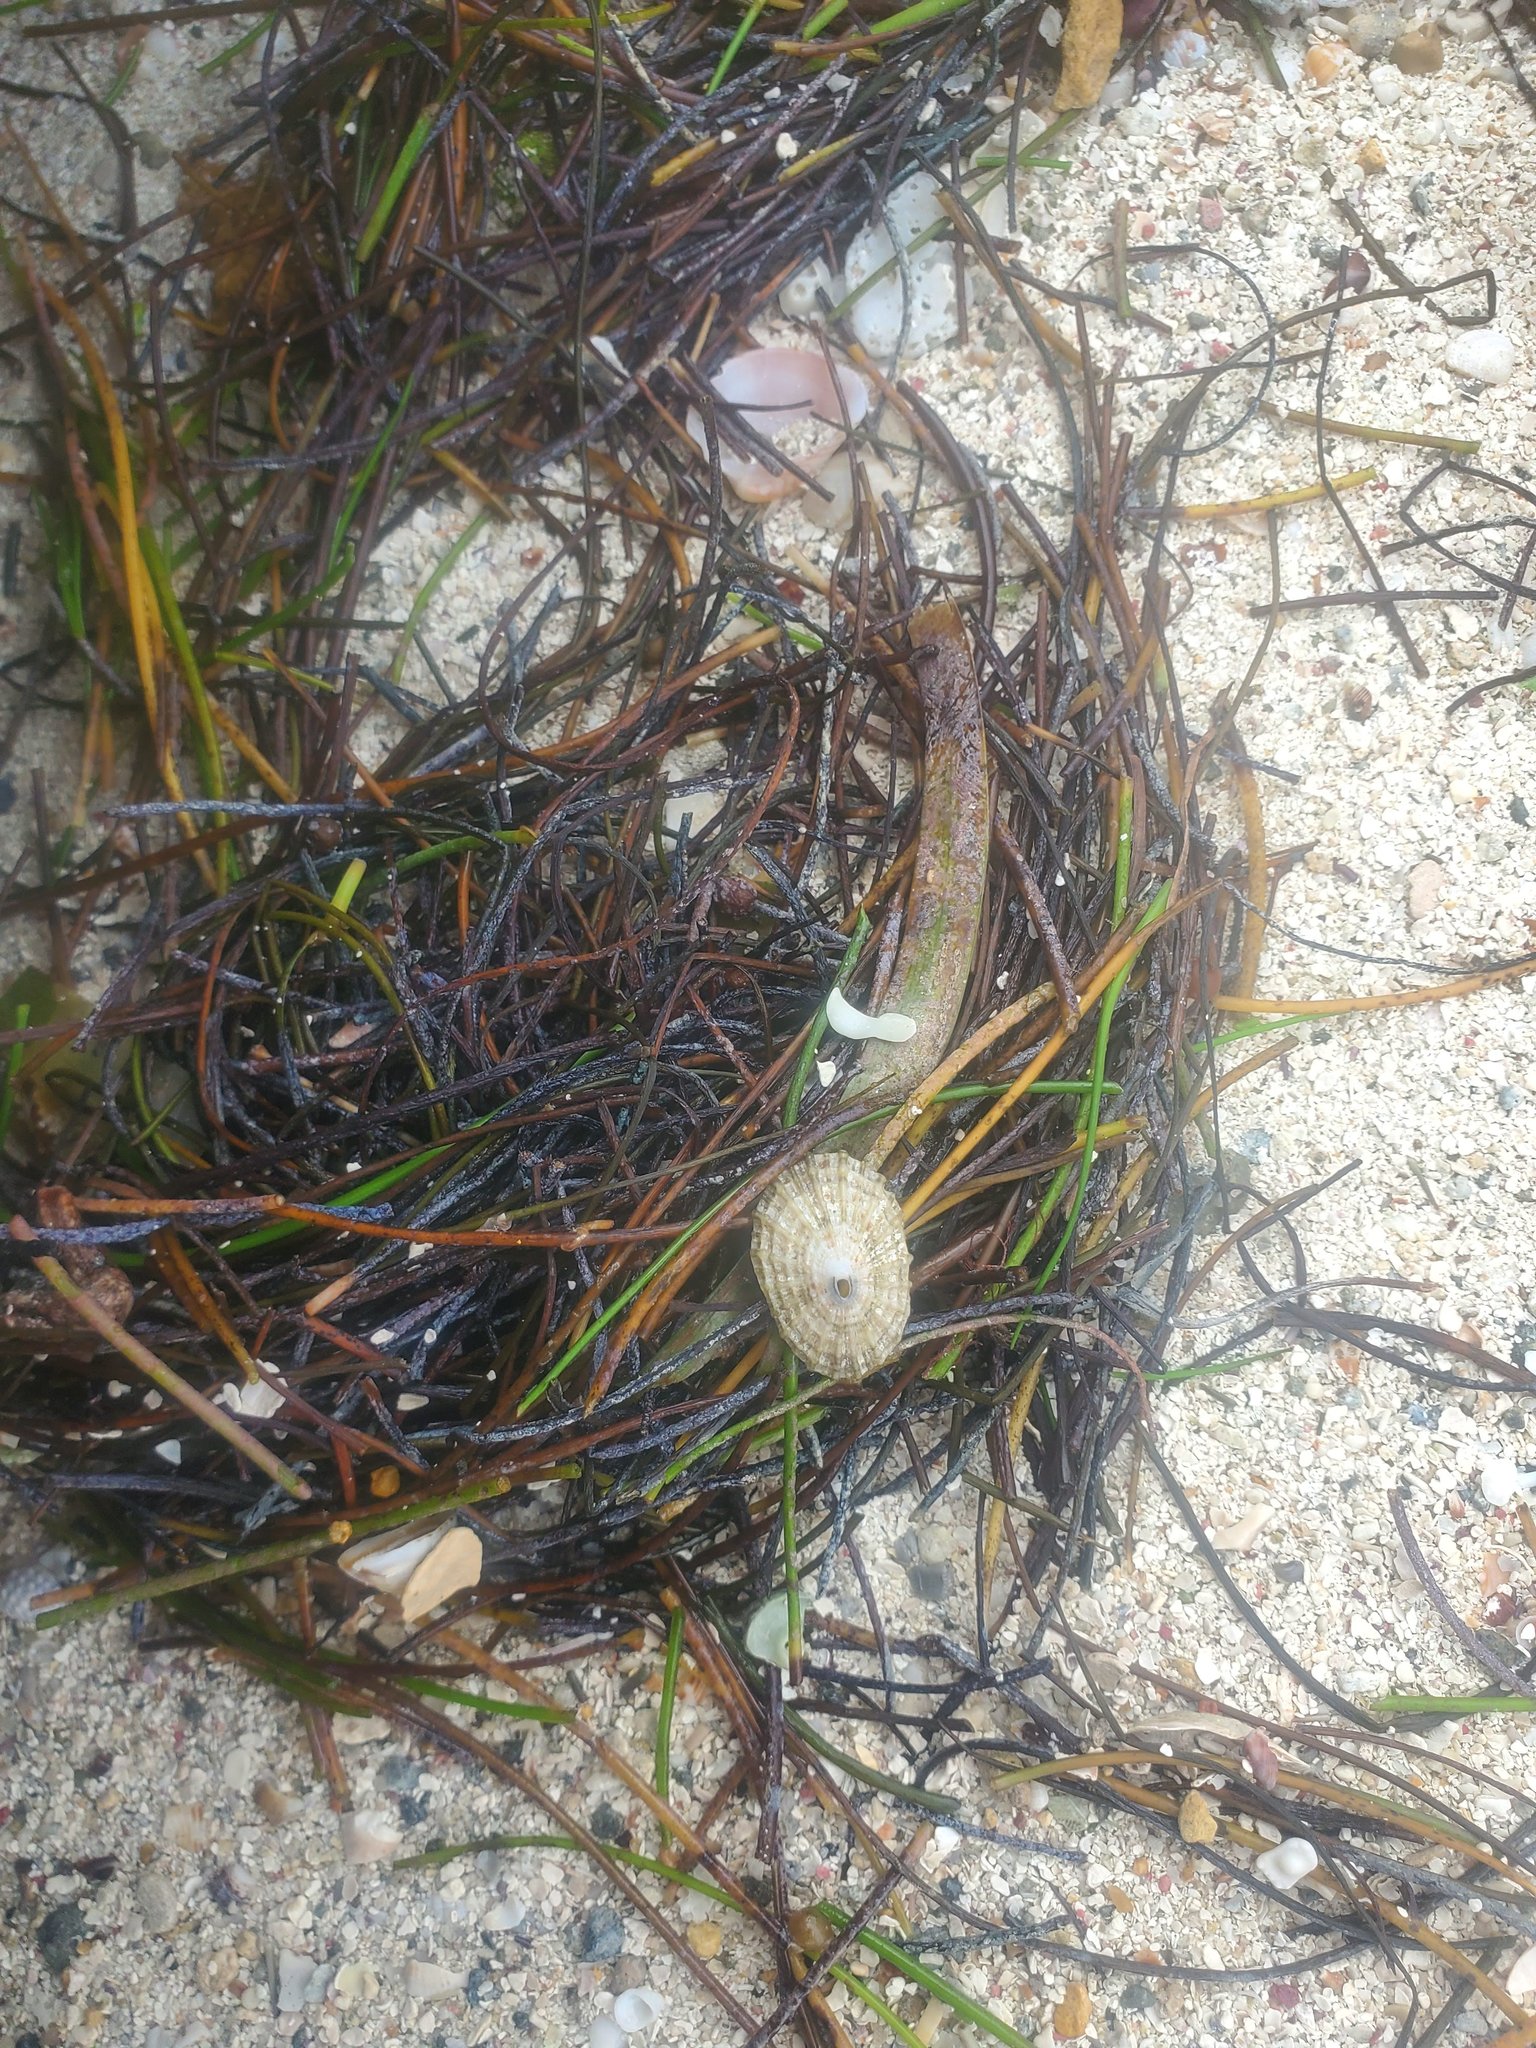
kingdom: Plantae
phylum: Tracheophyta
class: Liliopsida
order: Alismatales
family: Hydrocharitaceae
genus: Thalassia
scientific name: Thalassia testudinum
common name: Species code: tt
